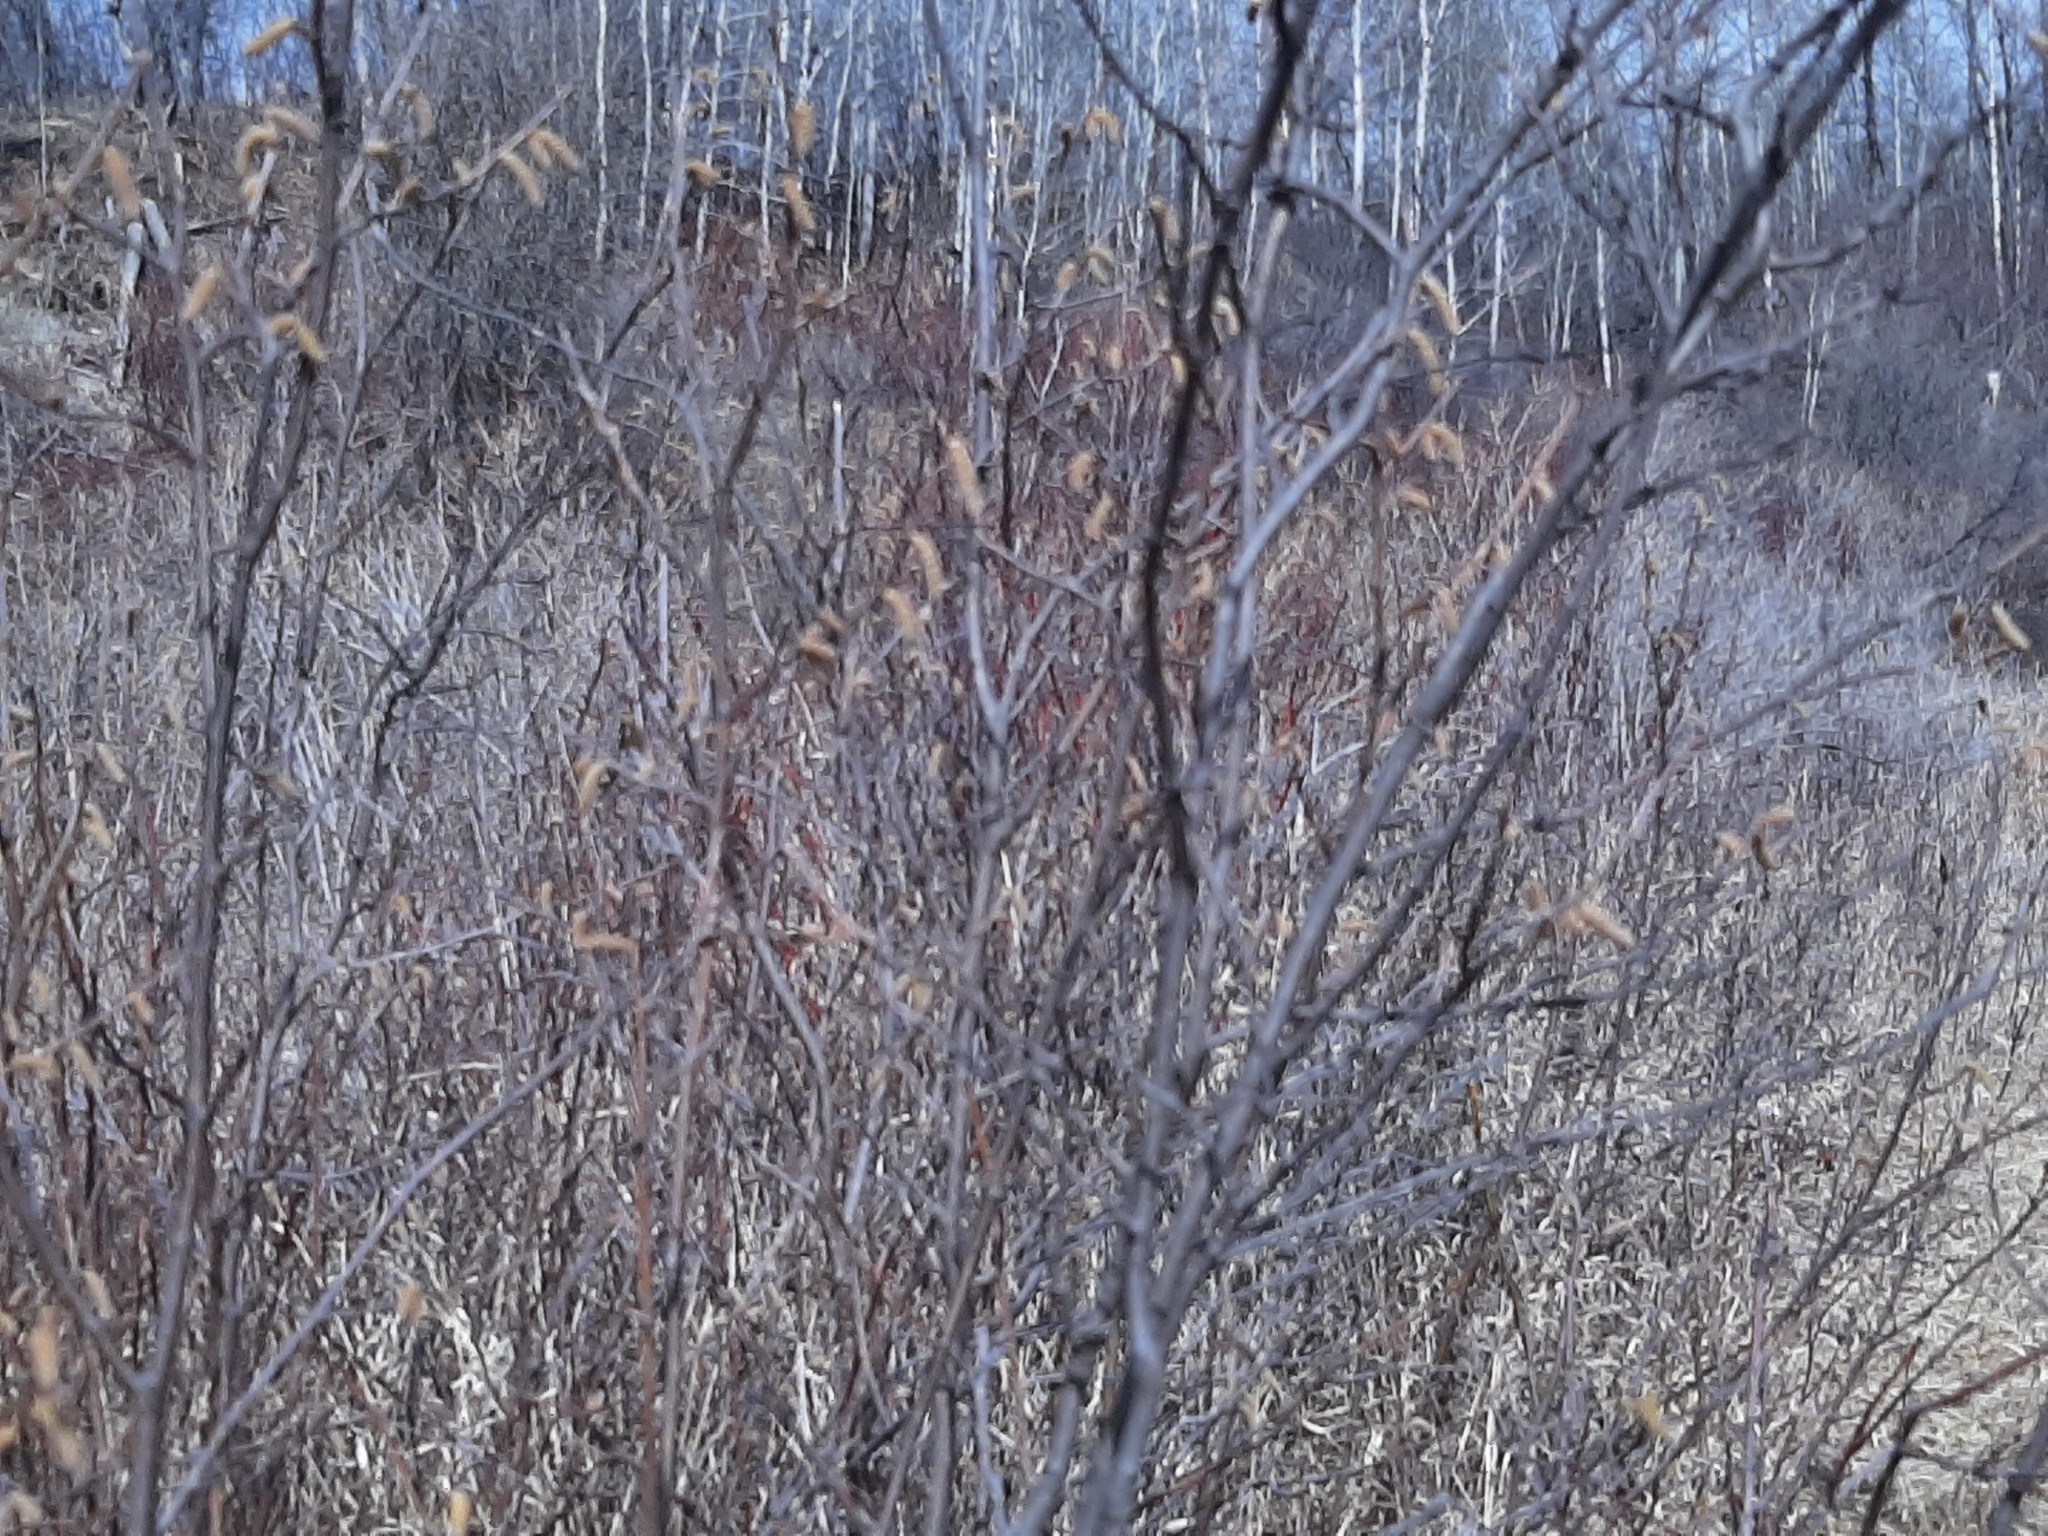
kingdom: Plantae
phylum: Tracheophyta
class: Magnoliopsida
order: Fagales
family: Betulaceae
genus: Corylus
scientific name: Corylus cornuta
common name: Beaked hazel
